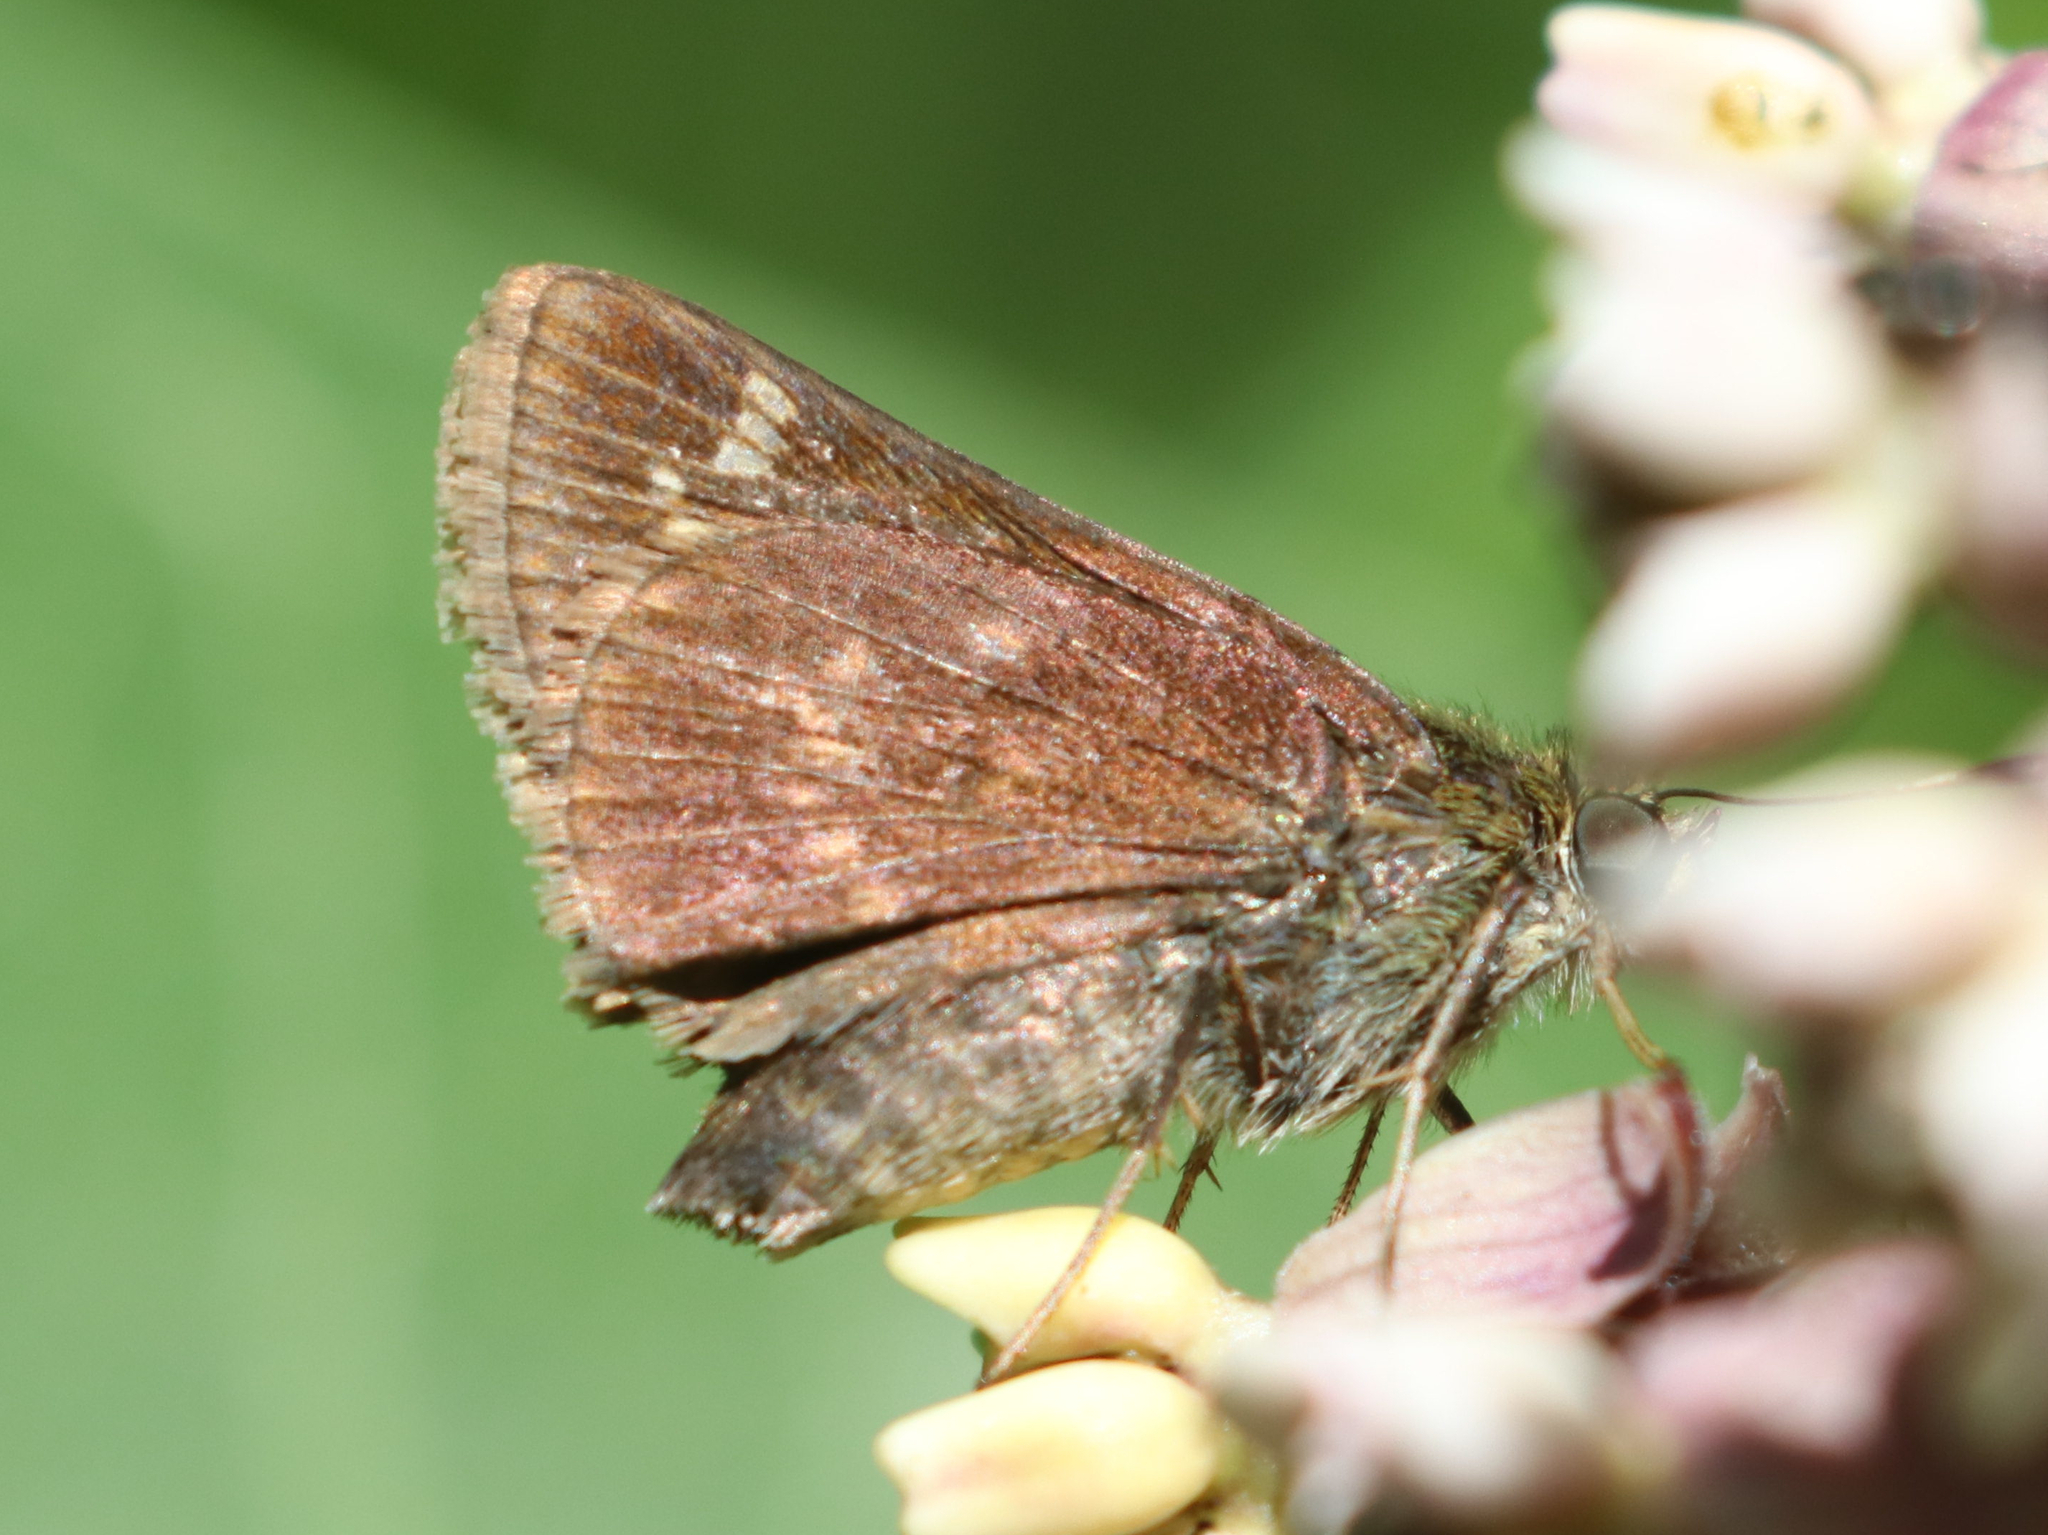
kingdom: Animalia
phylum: Arthropoda
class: Insecta
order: Lepidoptera
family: Hesperiidae
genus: Vernia
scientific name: Vernia verna
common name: Little glassywing
